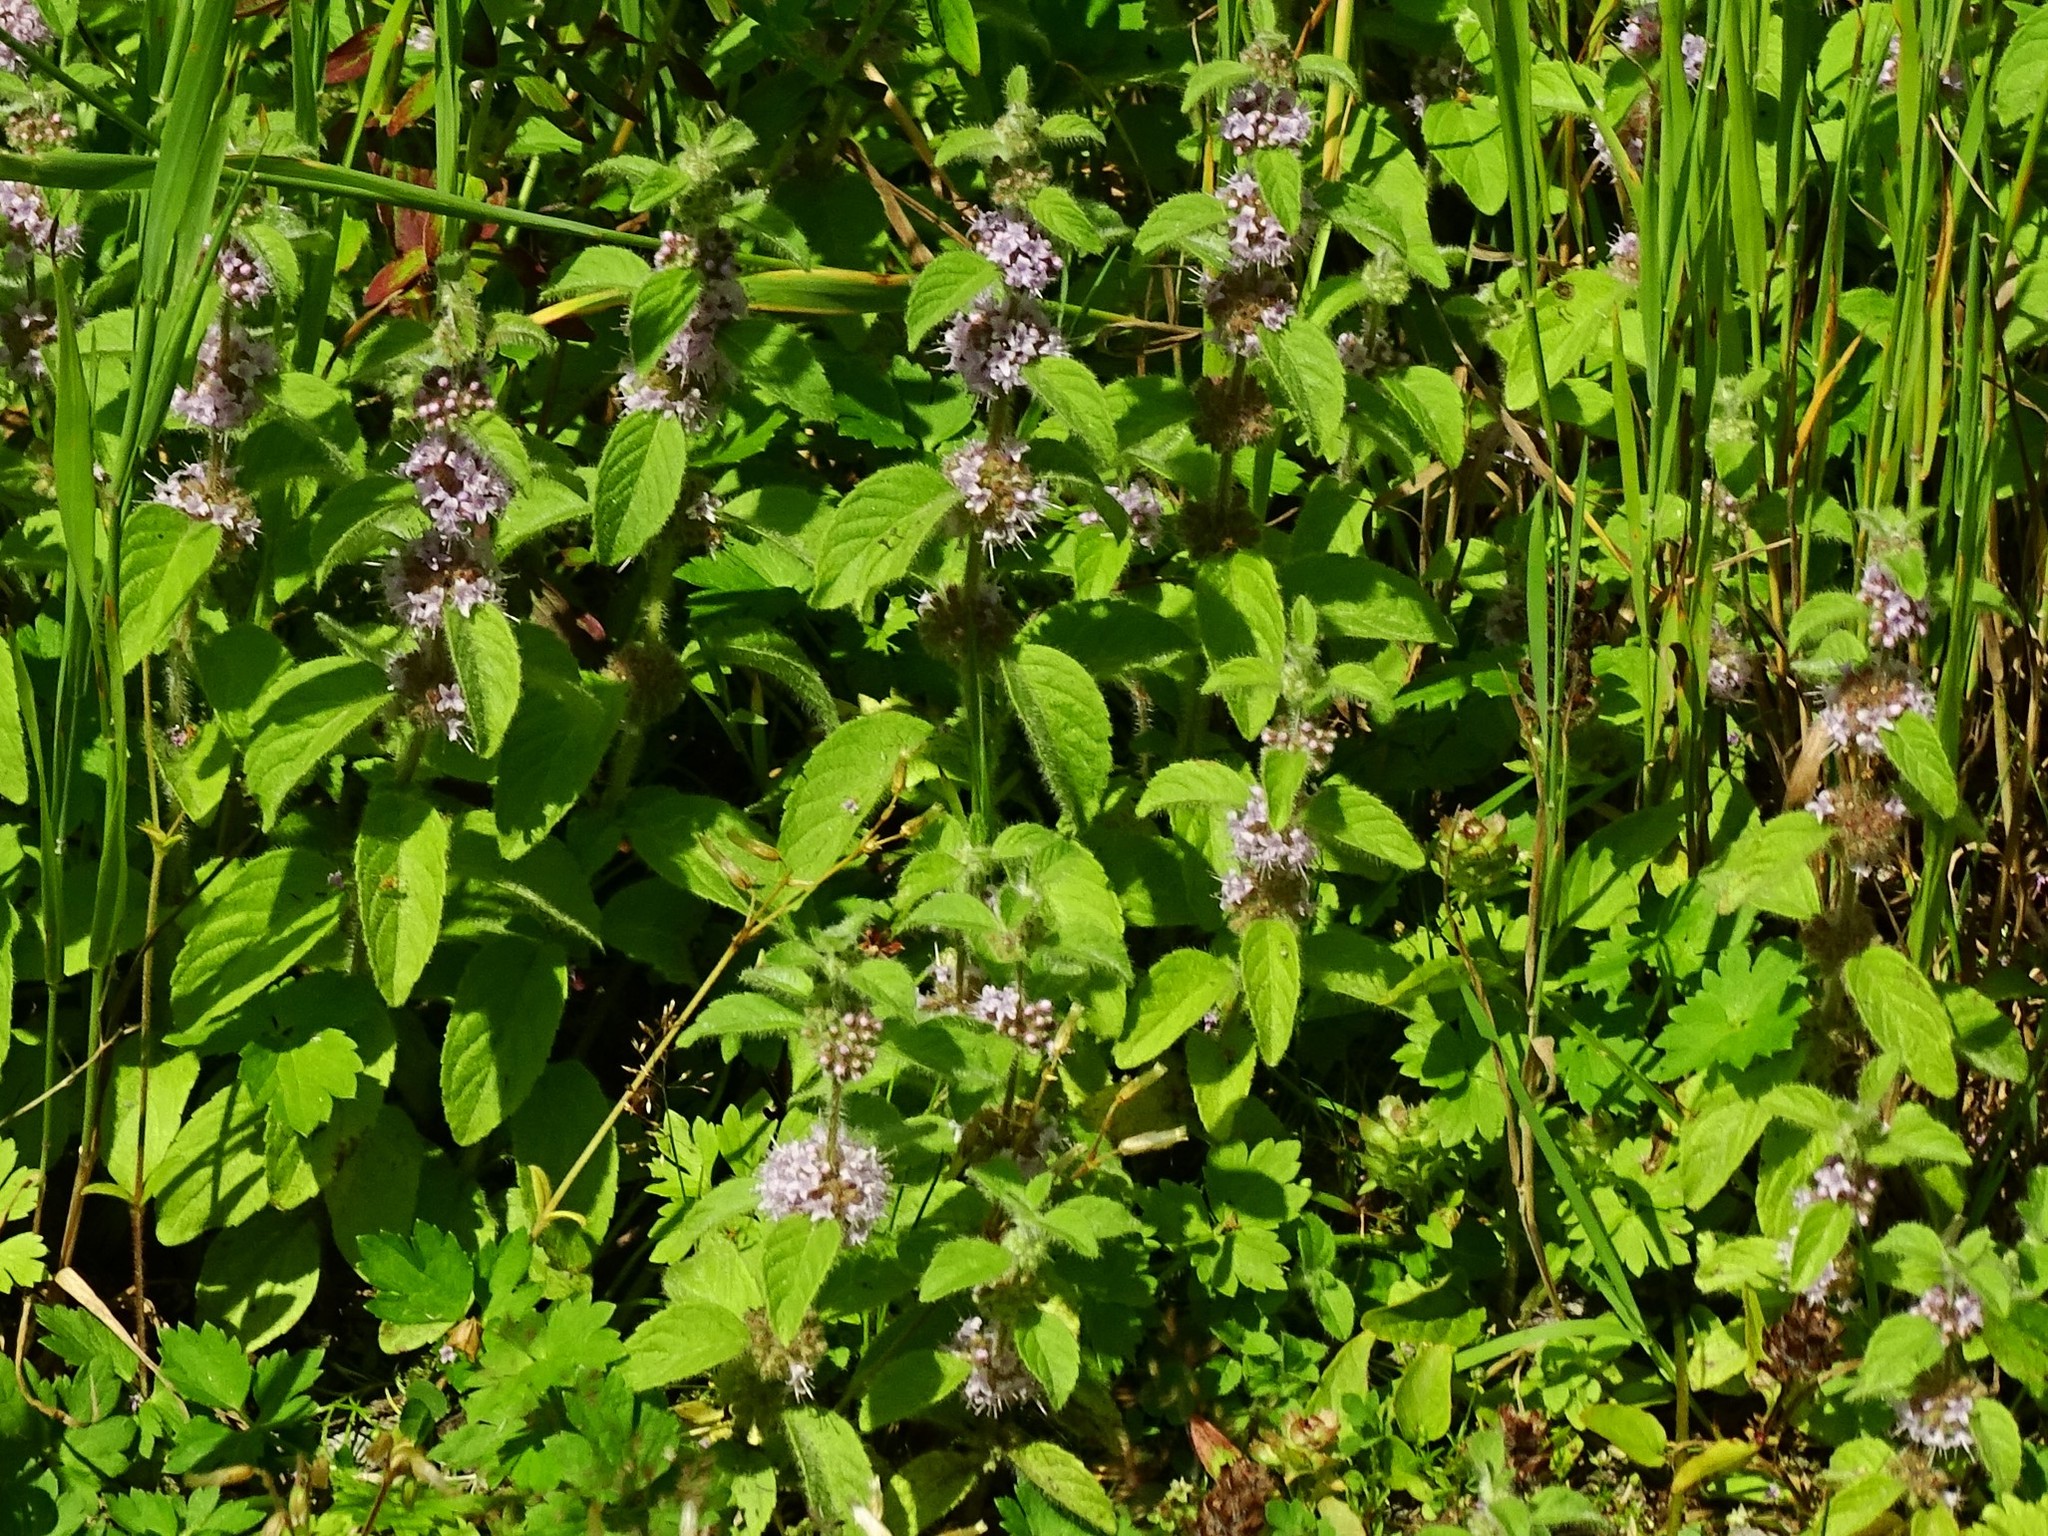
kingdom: Plantae
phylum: Tracheophyta
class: Magnoliopsida
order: Lamiales
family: Lamiaceae
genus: Mentha
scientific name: Mentha arvensis
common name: Corn mint
